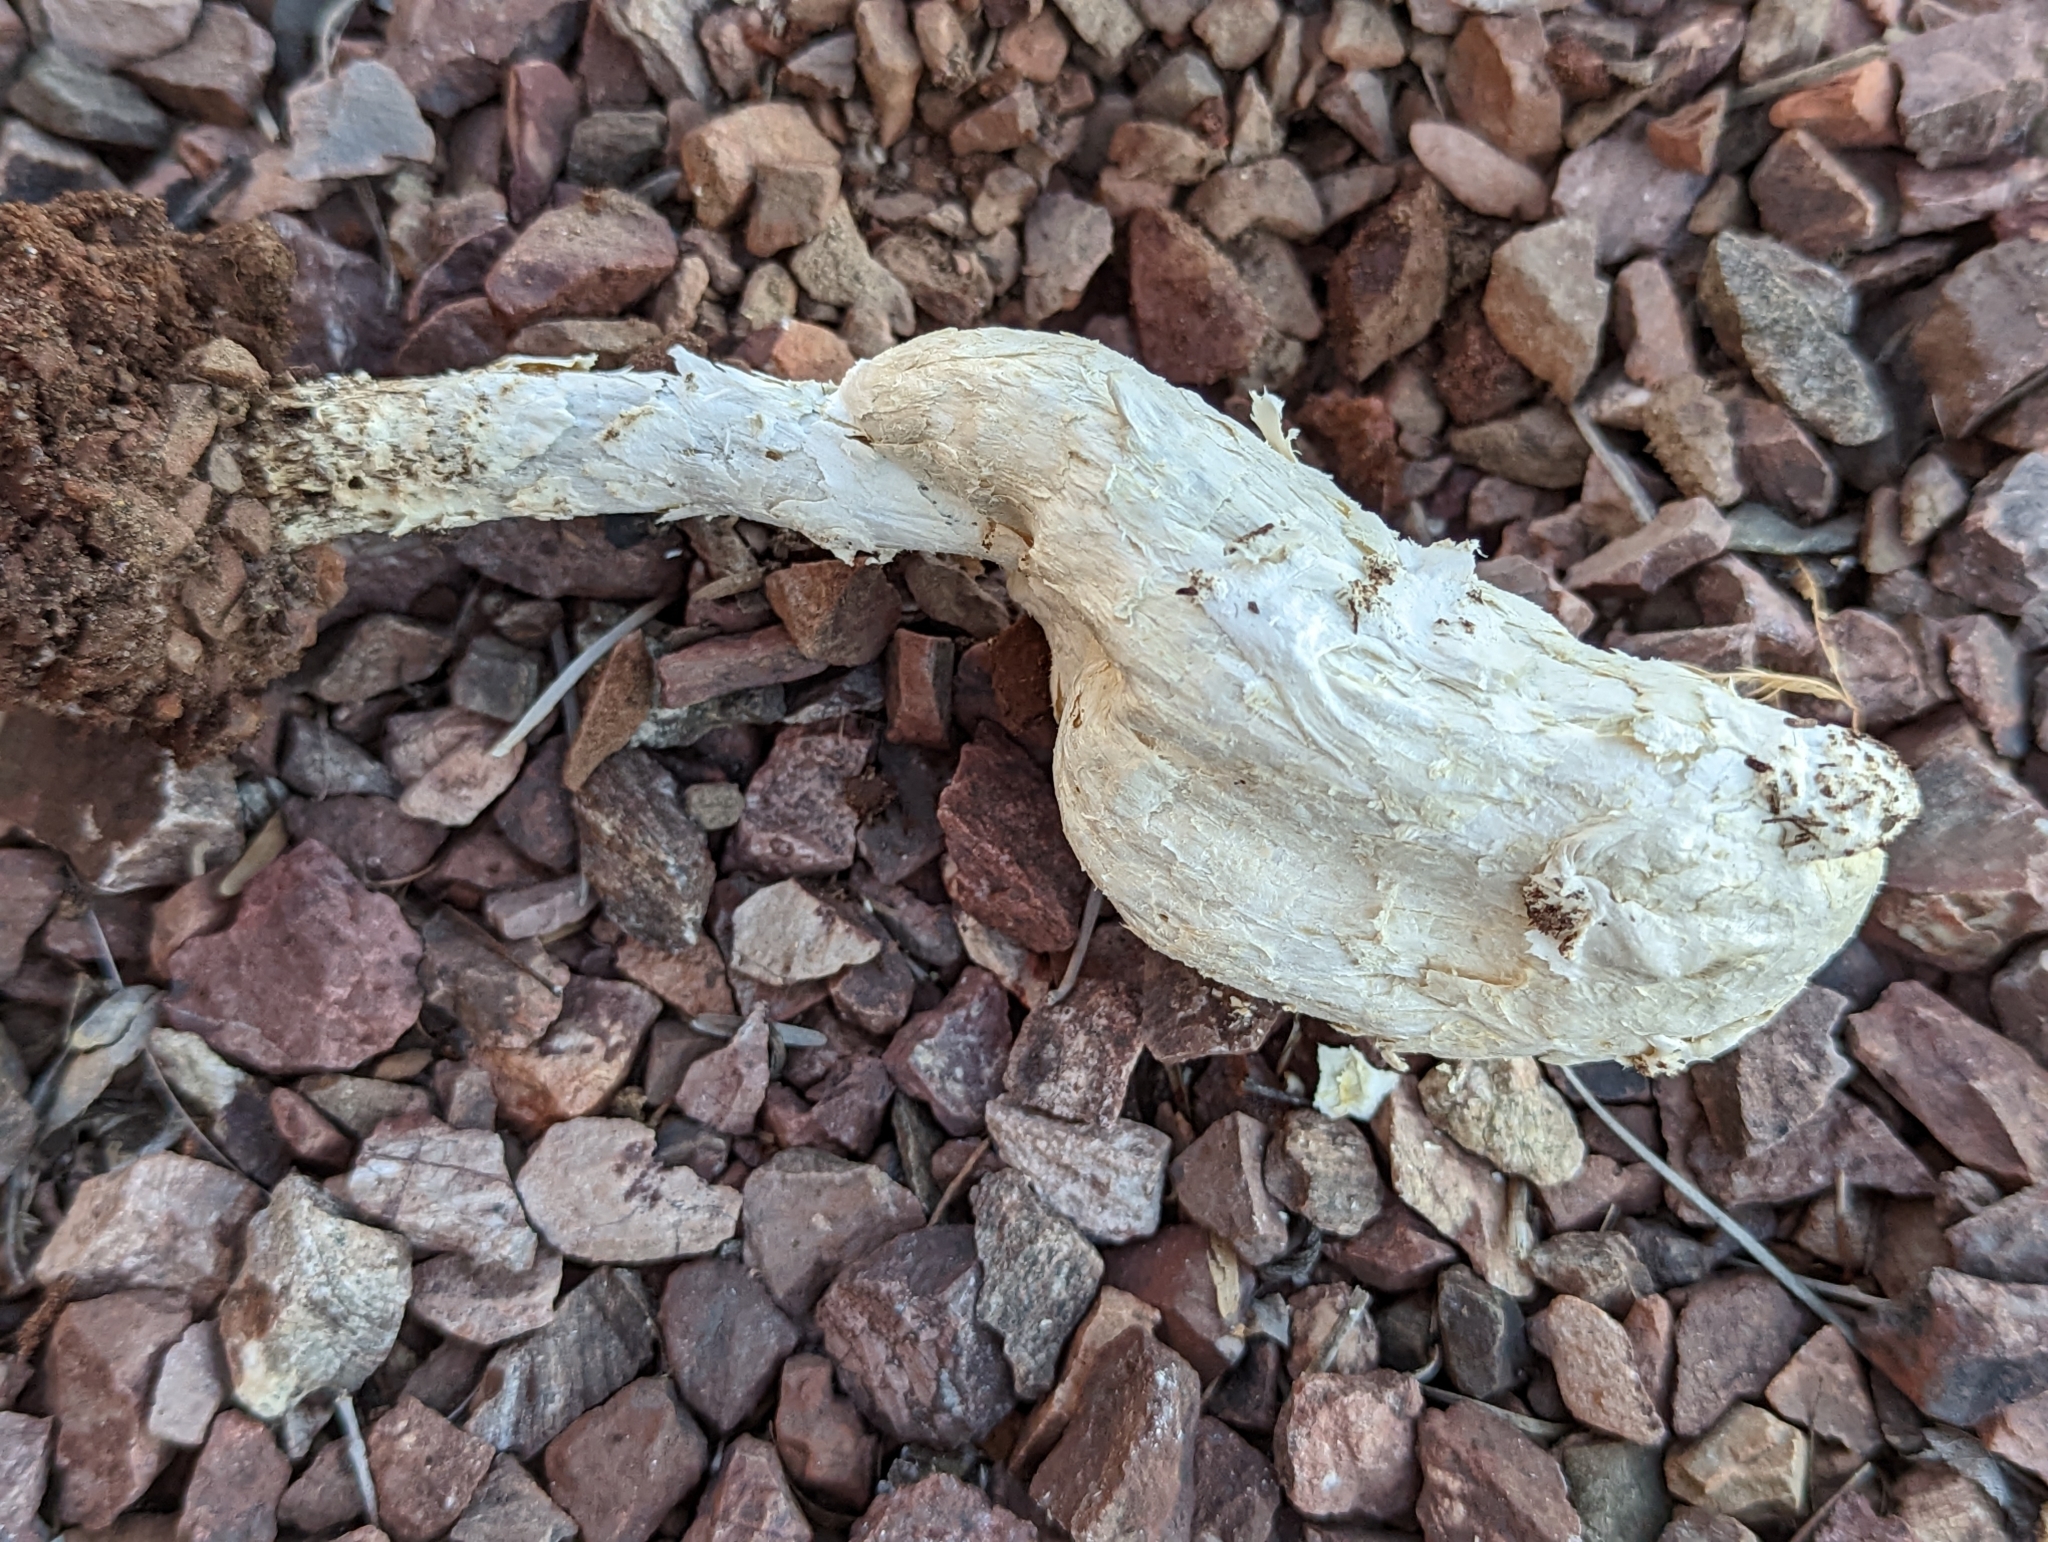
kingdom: Fungi
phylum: Basidiomycota
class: Agaricomycetes
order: Agaricales
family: Agaricaceae
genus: Podaxis
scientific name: Podaxis pistillaris
